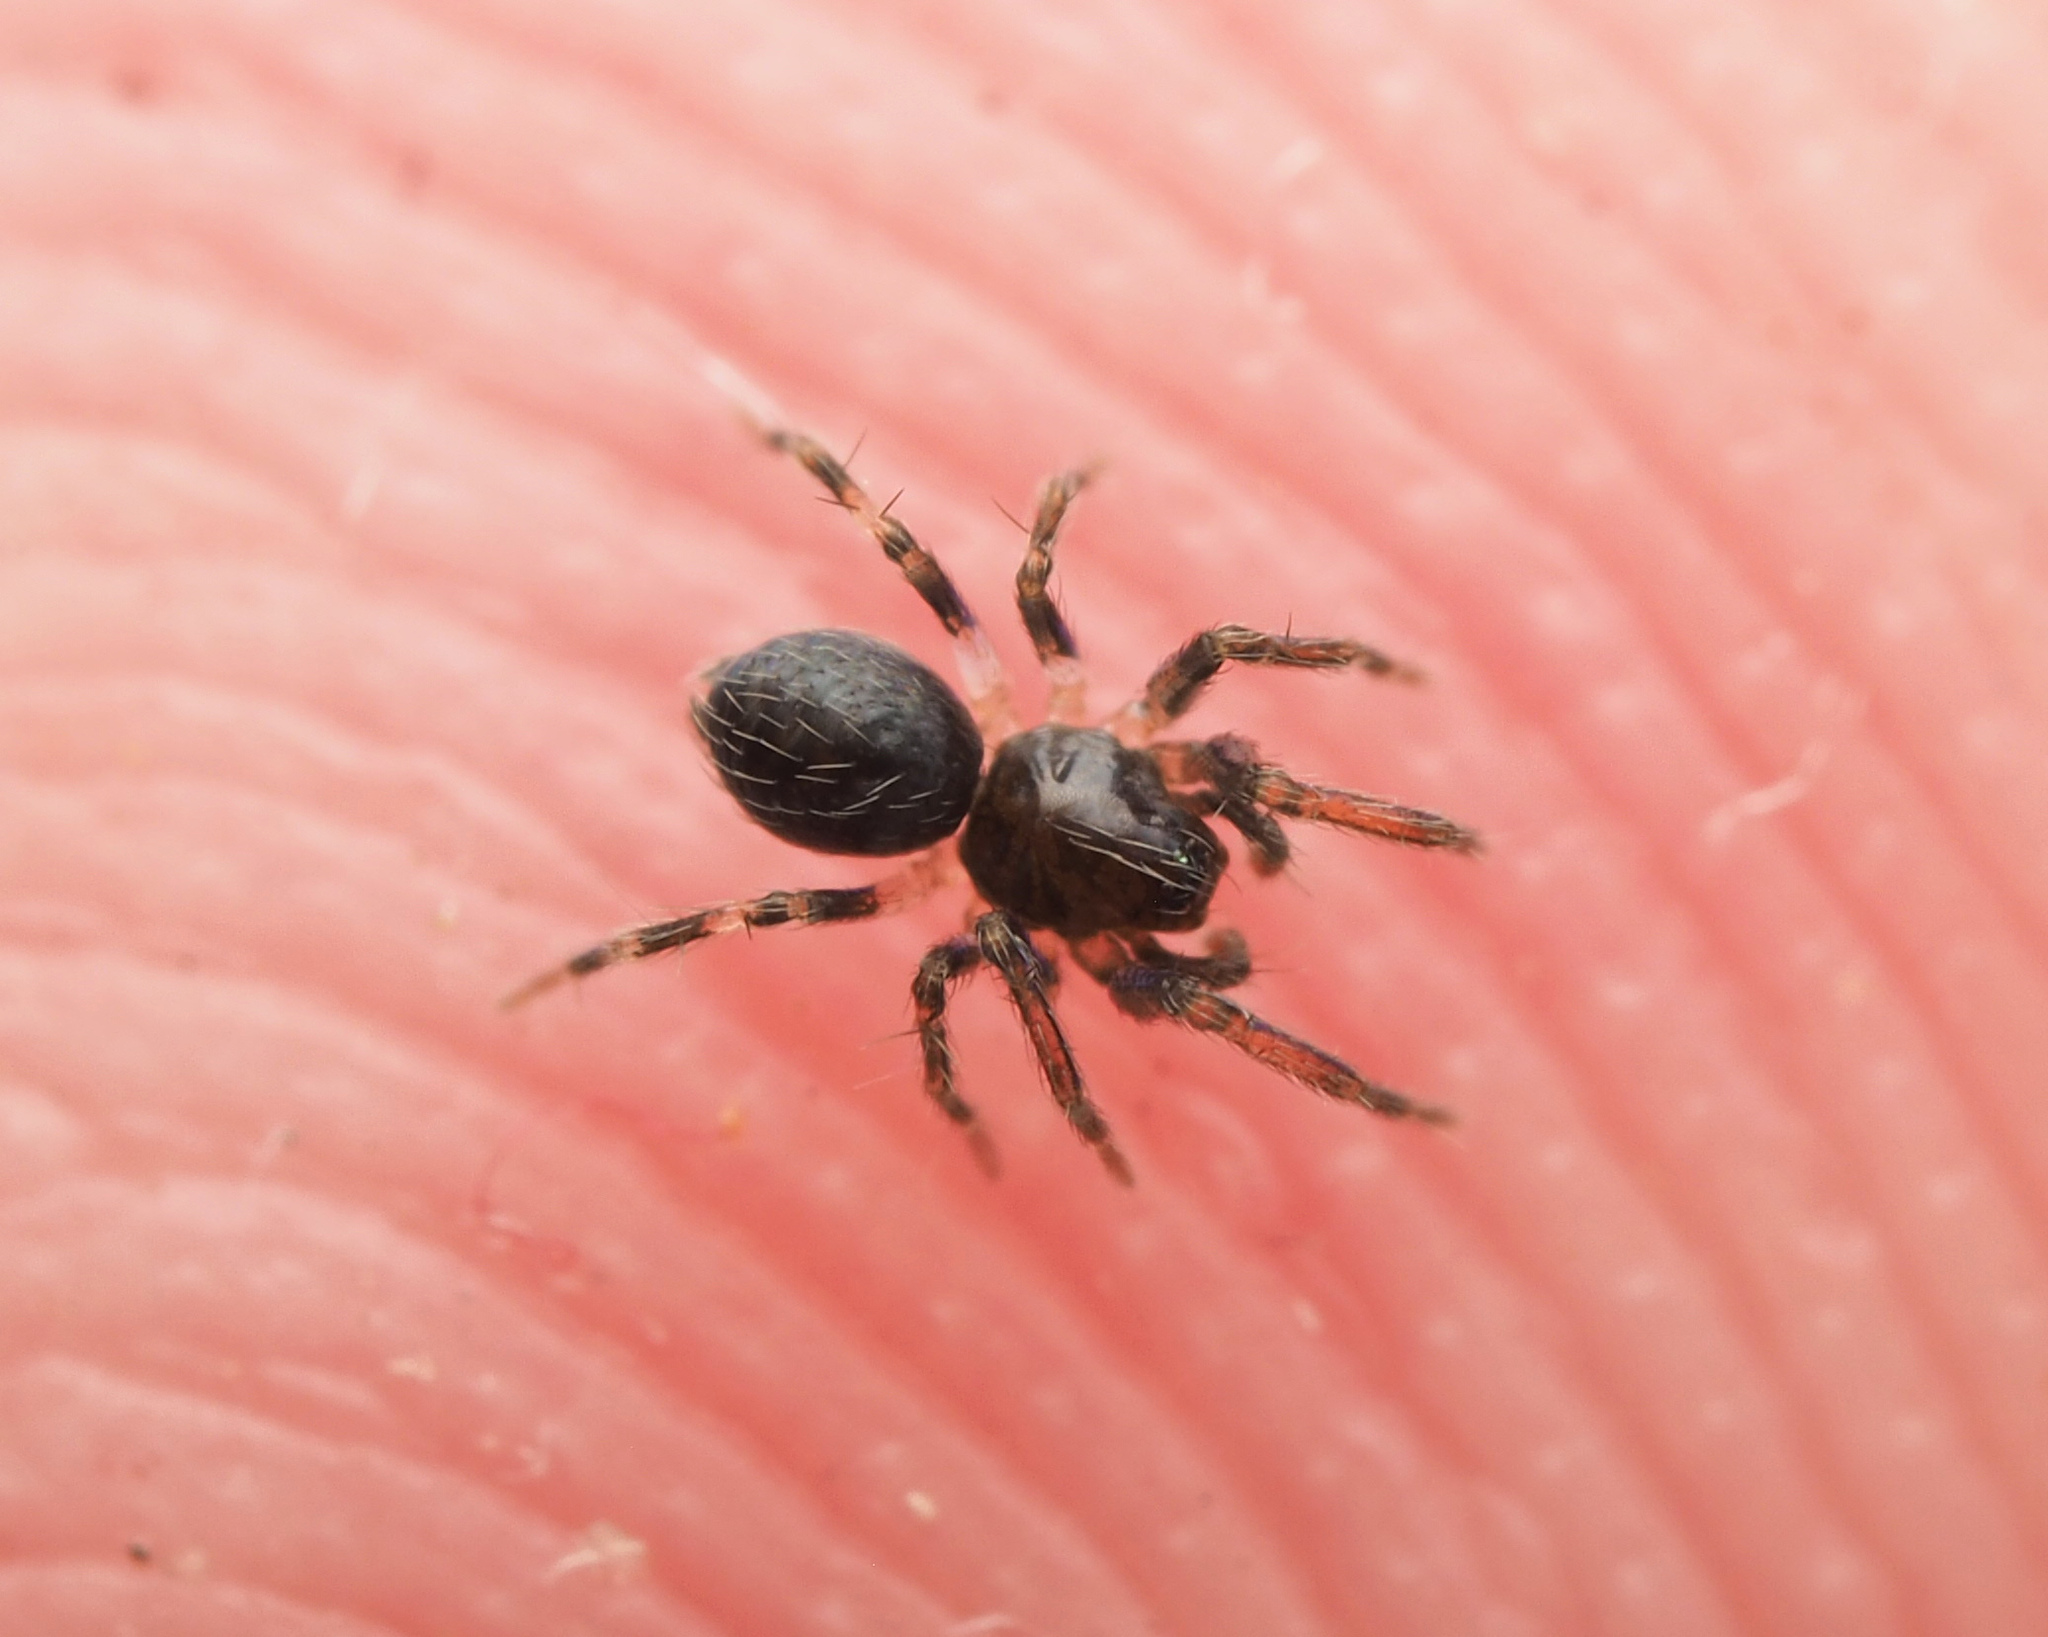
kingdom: Animalia
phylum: Arthropoda
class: Arachnida
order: Araneae
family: Hahniidae
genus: Alistra
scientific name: Alistra
